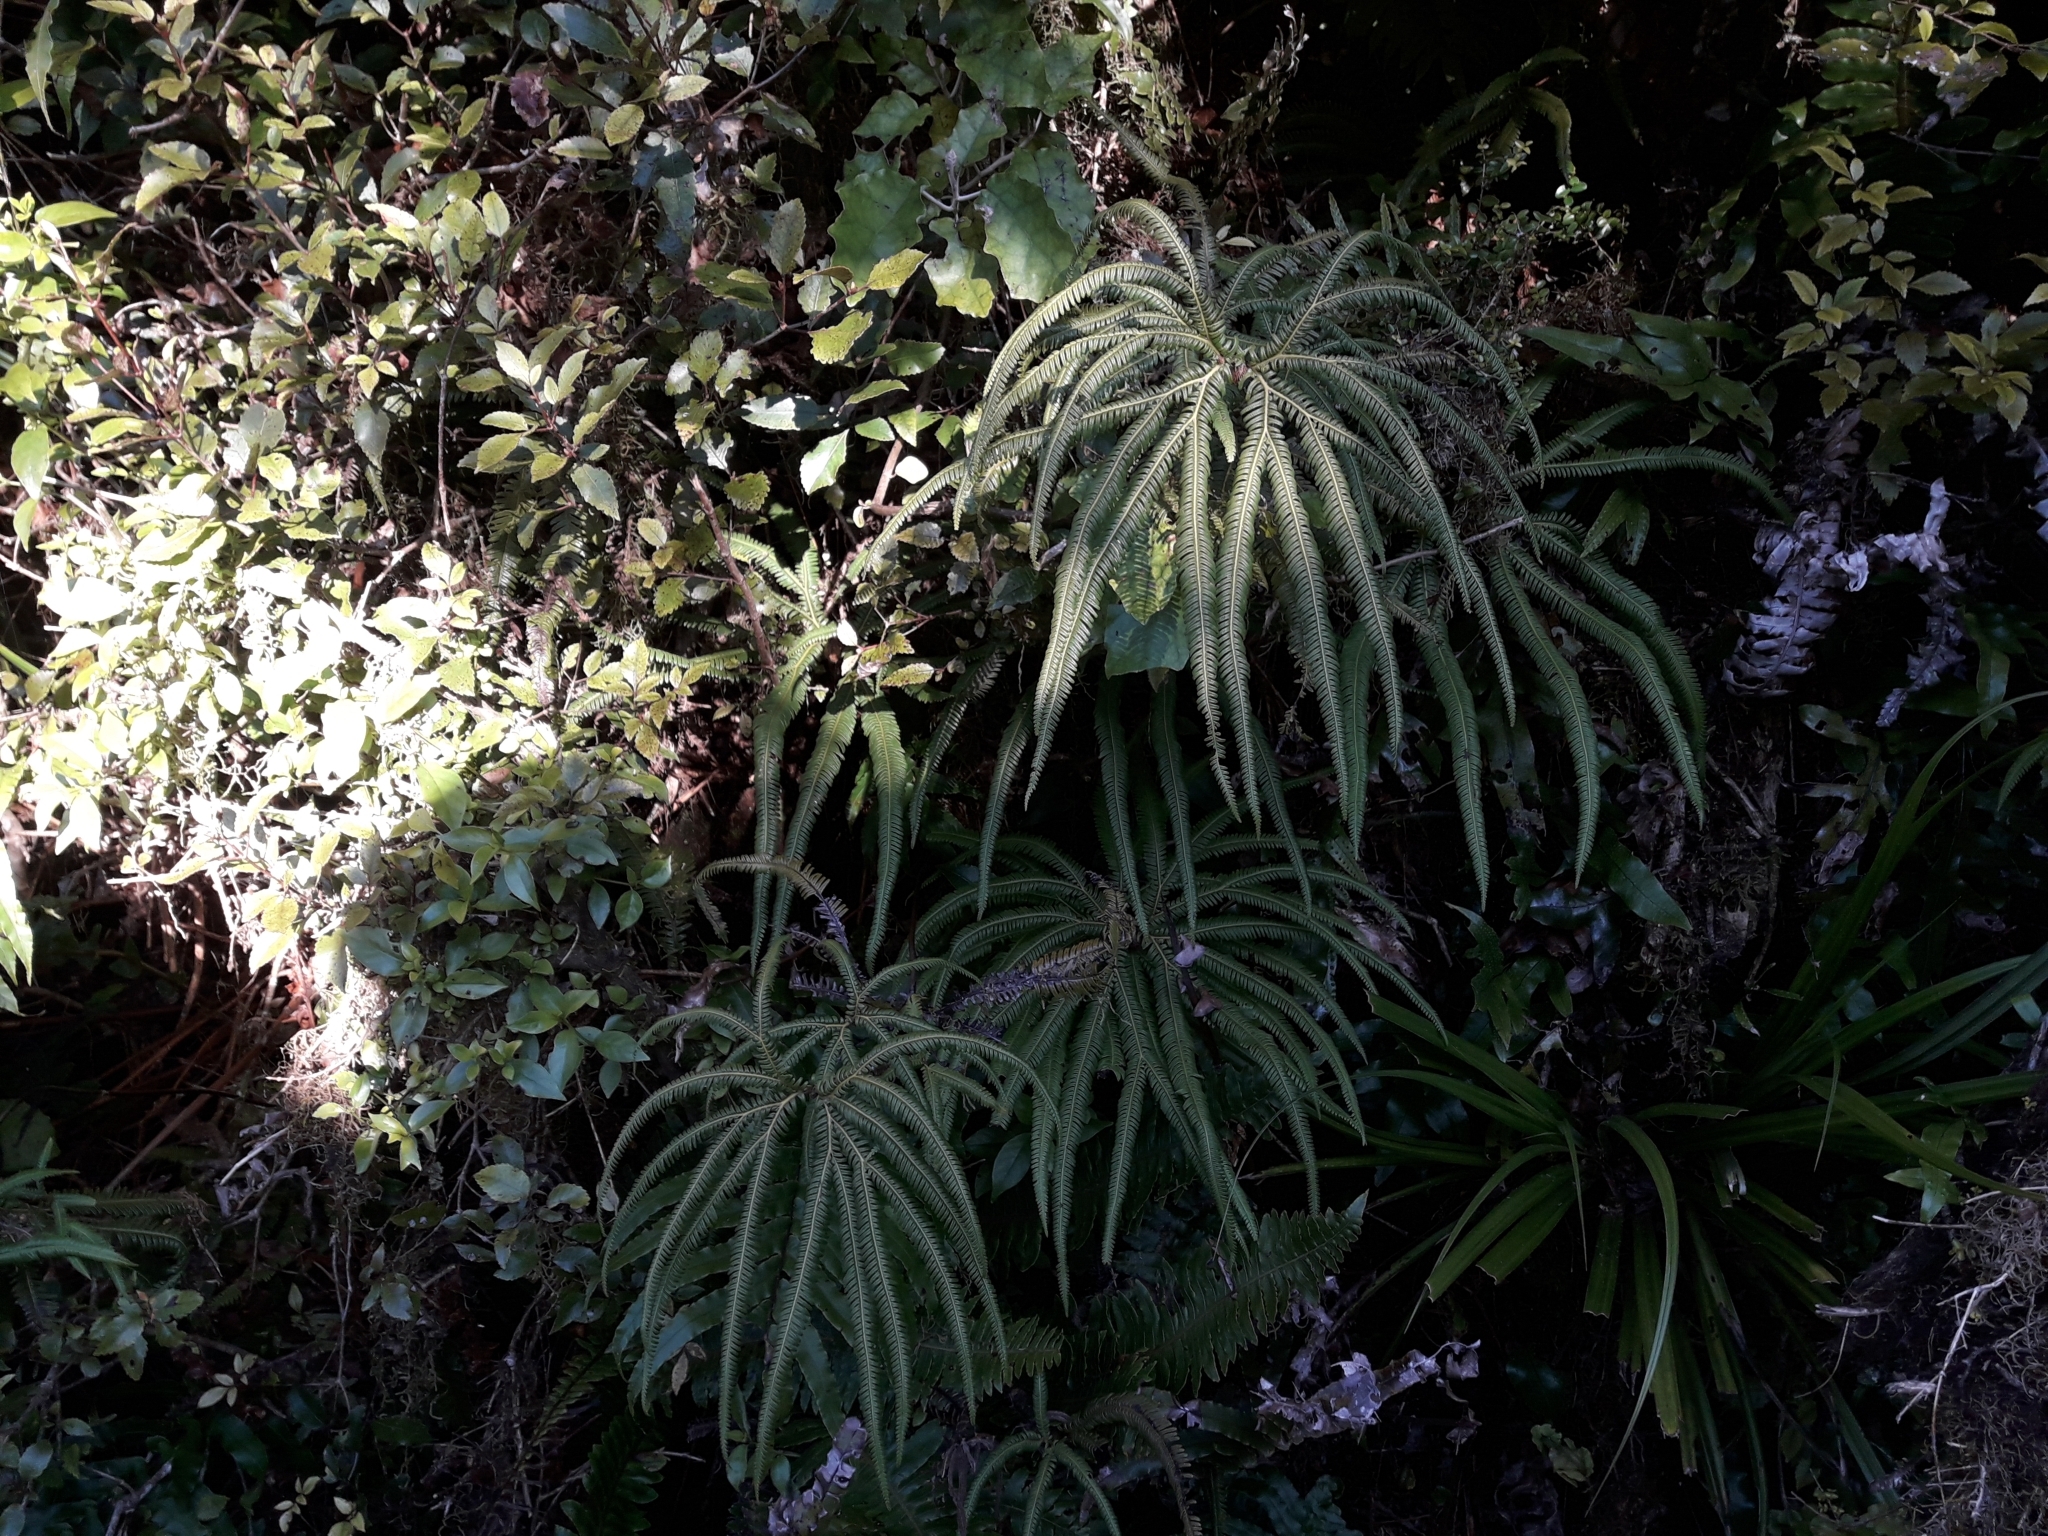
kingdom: Plantae
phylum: Tracheophyta
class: Polypodiopsida
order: Gleicheniales
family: Gleicheniaceae
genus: Sticherus
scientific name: Sticherus cunninghamii
